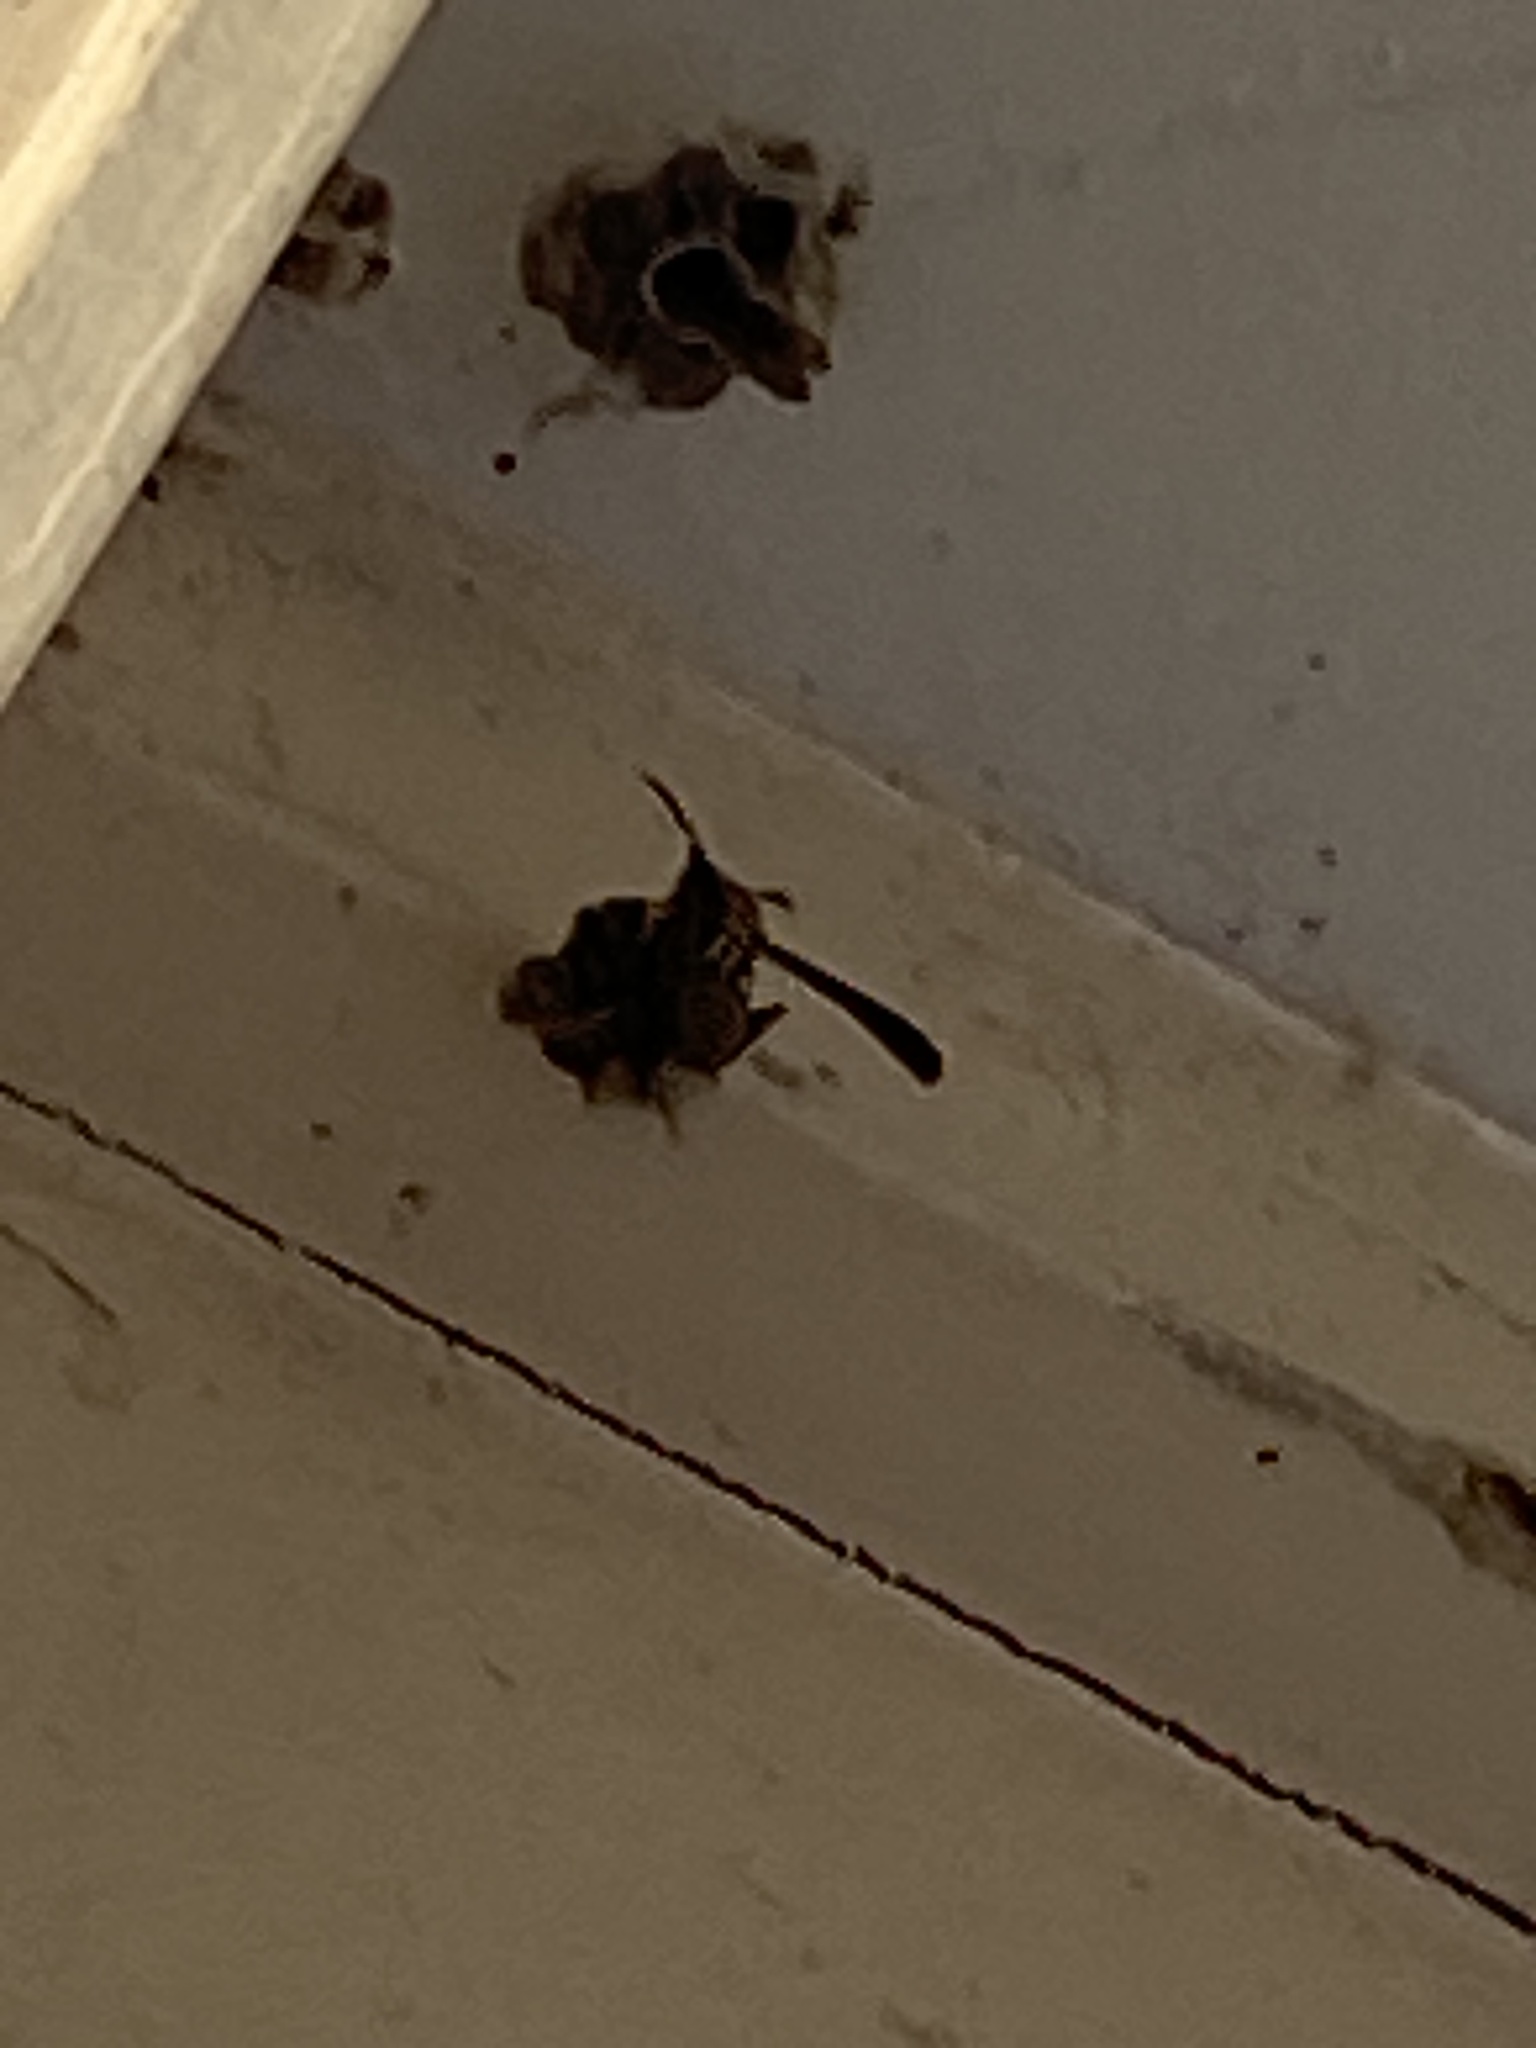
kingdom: Animalia
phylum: Arthropoda
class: Insecta
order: Hymenoptera
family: Eumenidae
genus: Polistes
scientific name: Polistes exclamans
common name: Paper wasp
